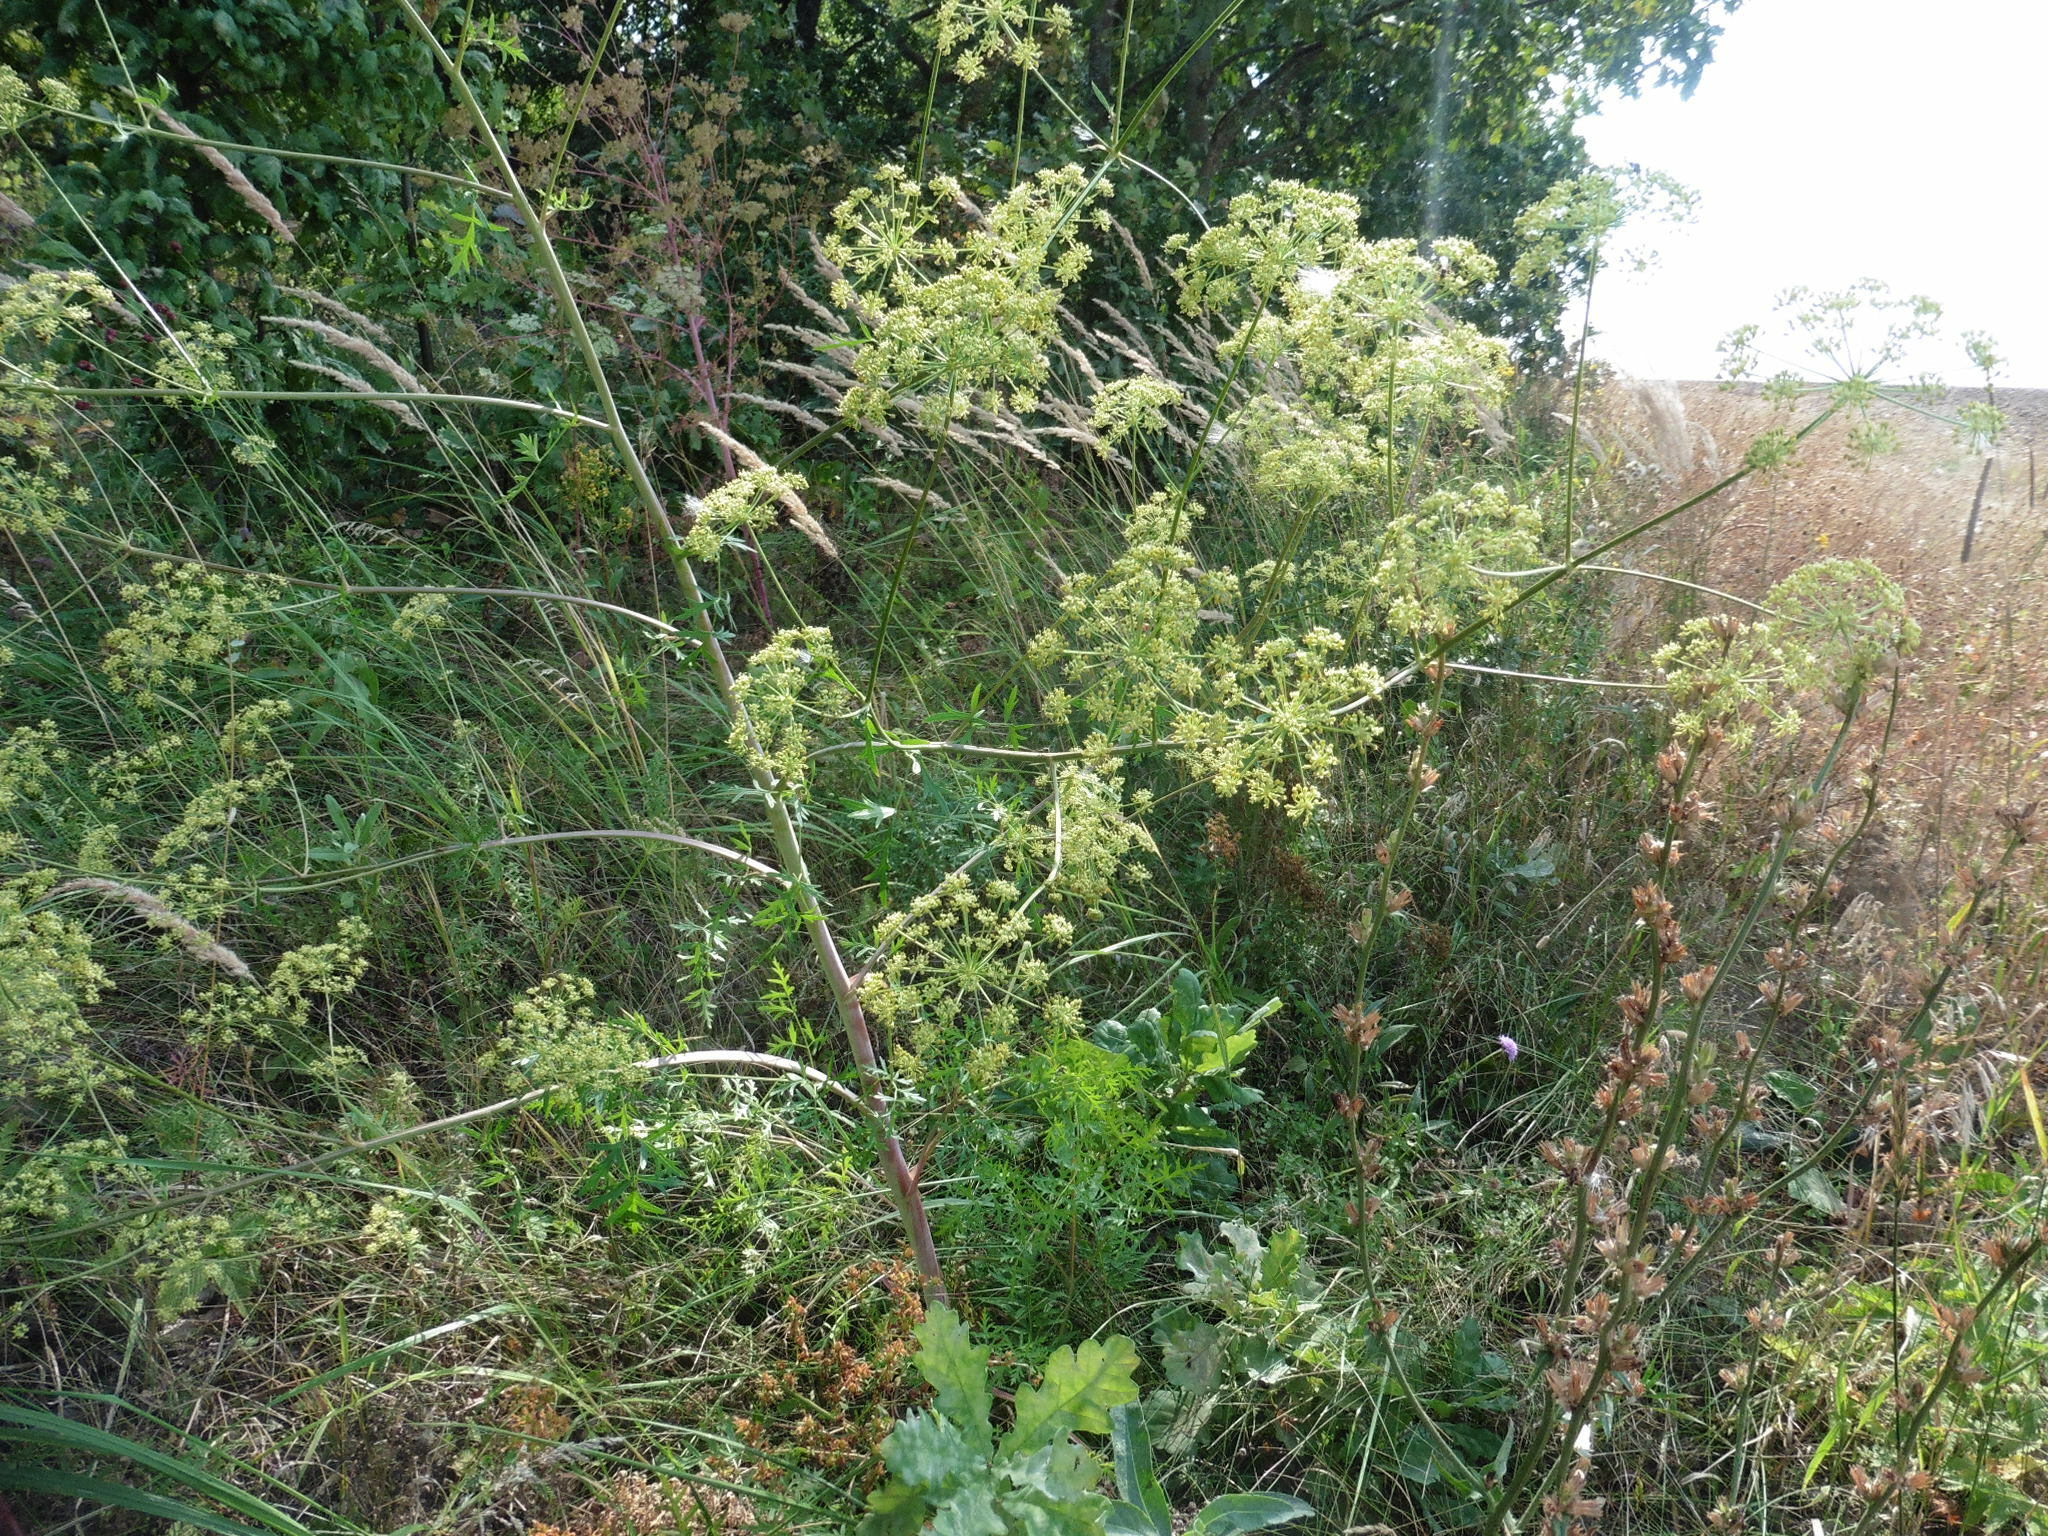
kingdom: Plantae
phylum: Tracheophyta
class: Magnoliopsida
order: Apiales
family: Apiaceae
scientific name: Apiaceae
